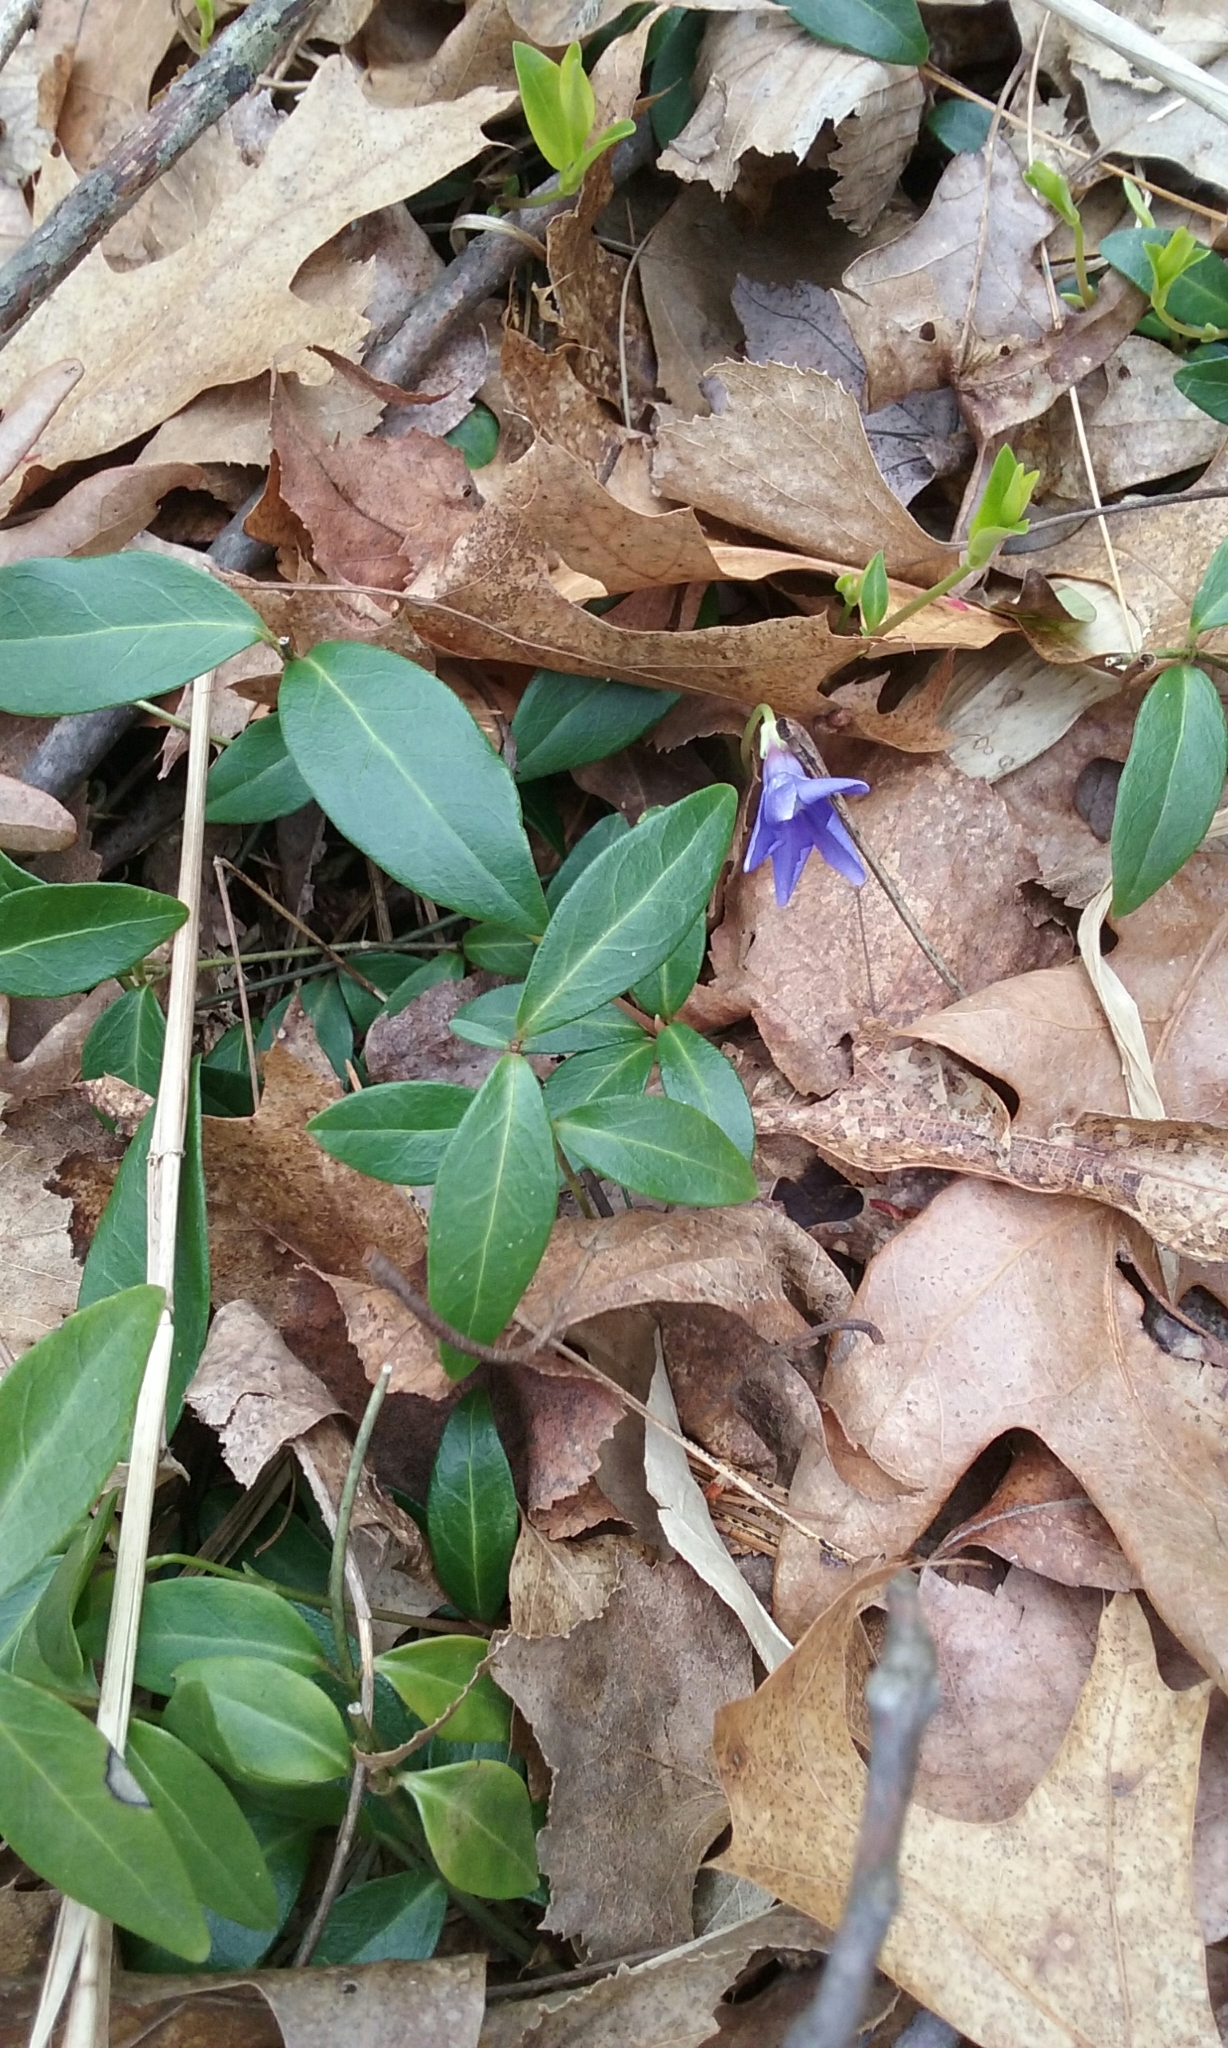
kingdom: Plantae
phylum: Tracheophyta
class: Magnoliopsida
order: Gentianales
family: Apocynaceae
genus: Vinca
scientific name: Vinca minor
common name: Lesser periwinkle
